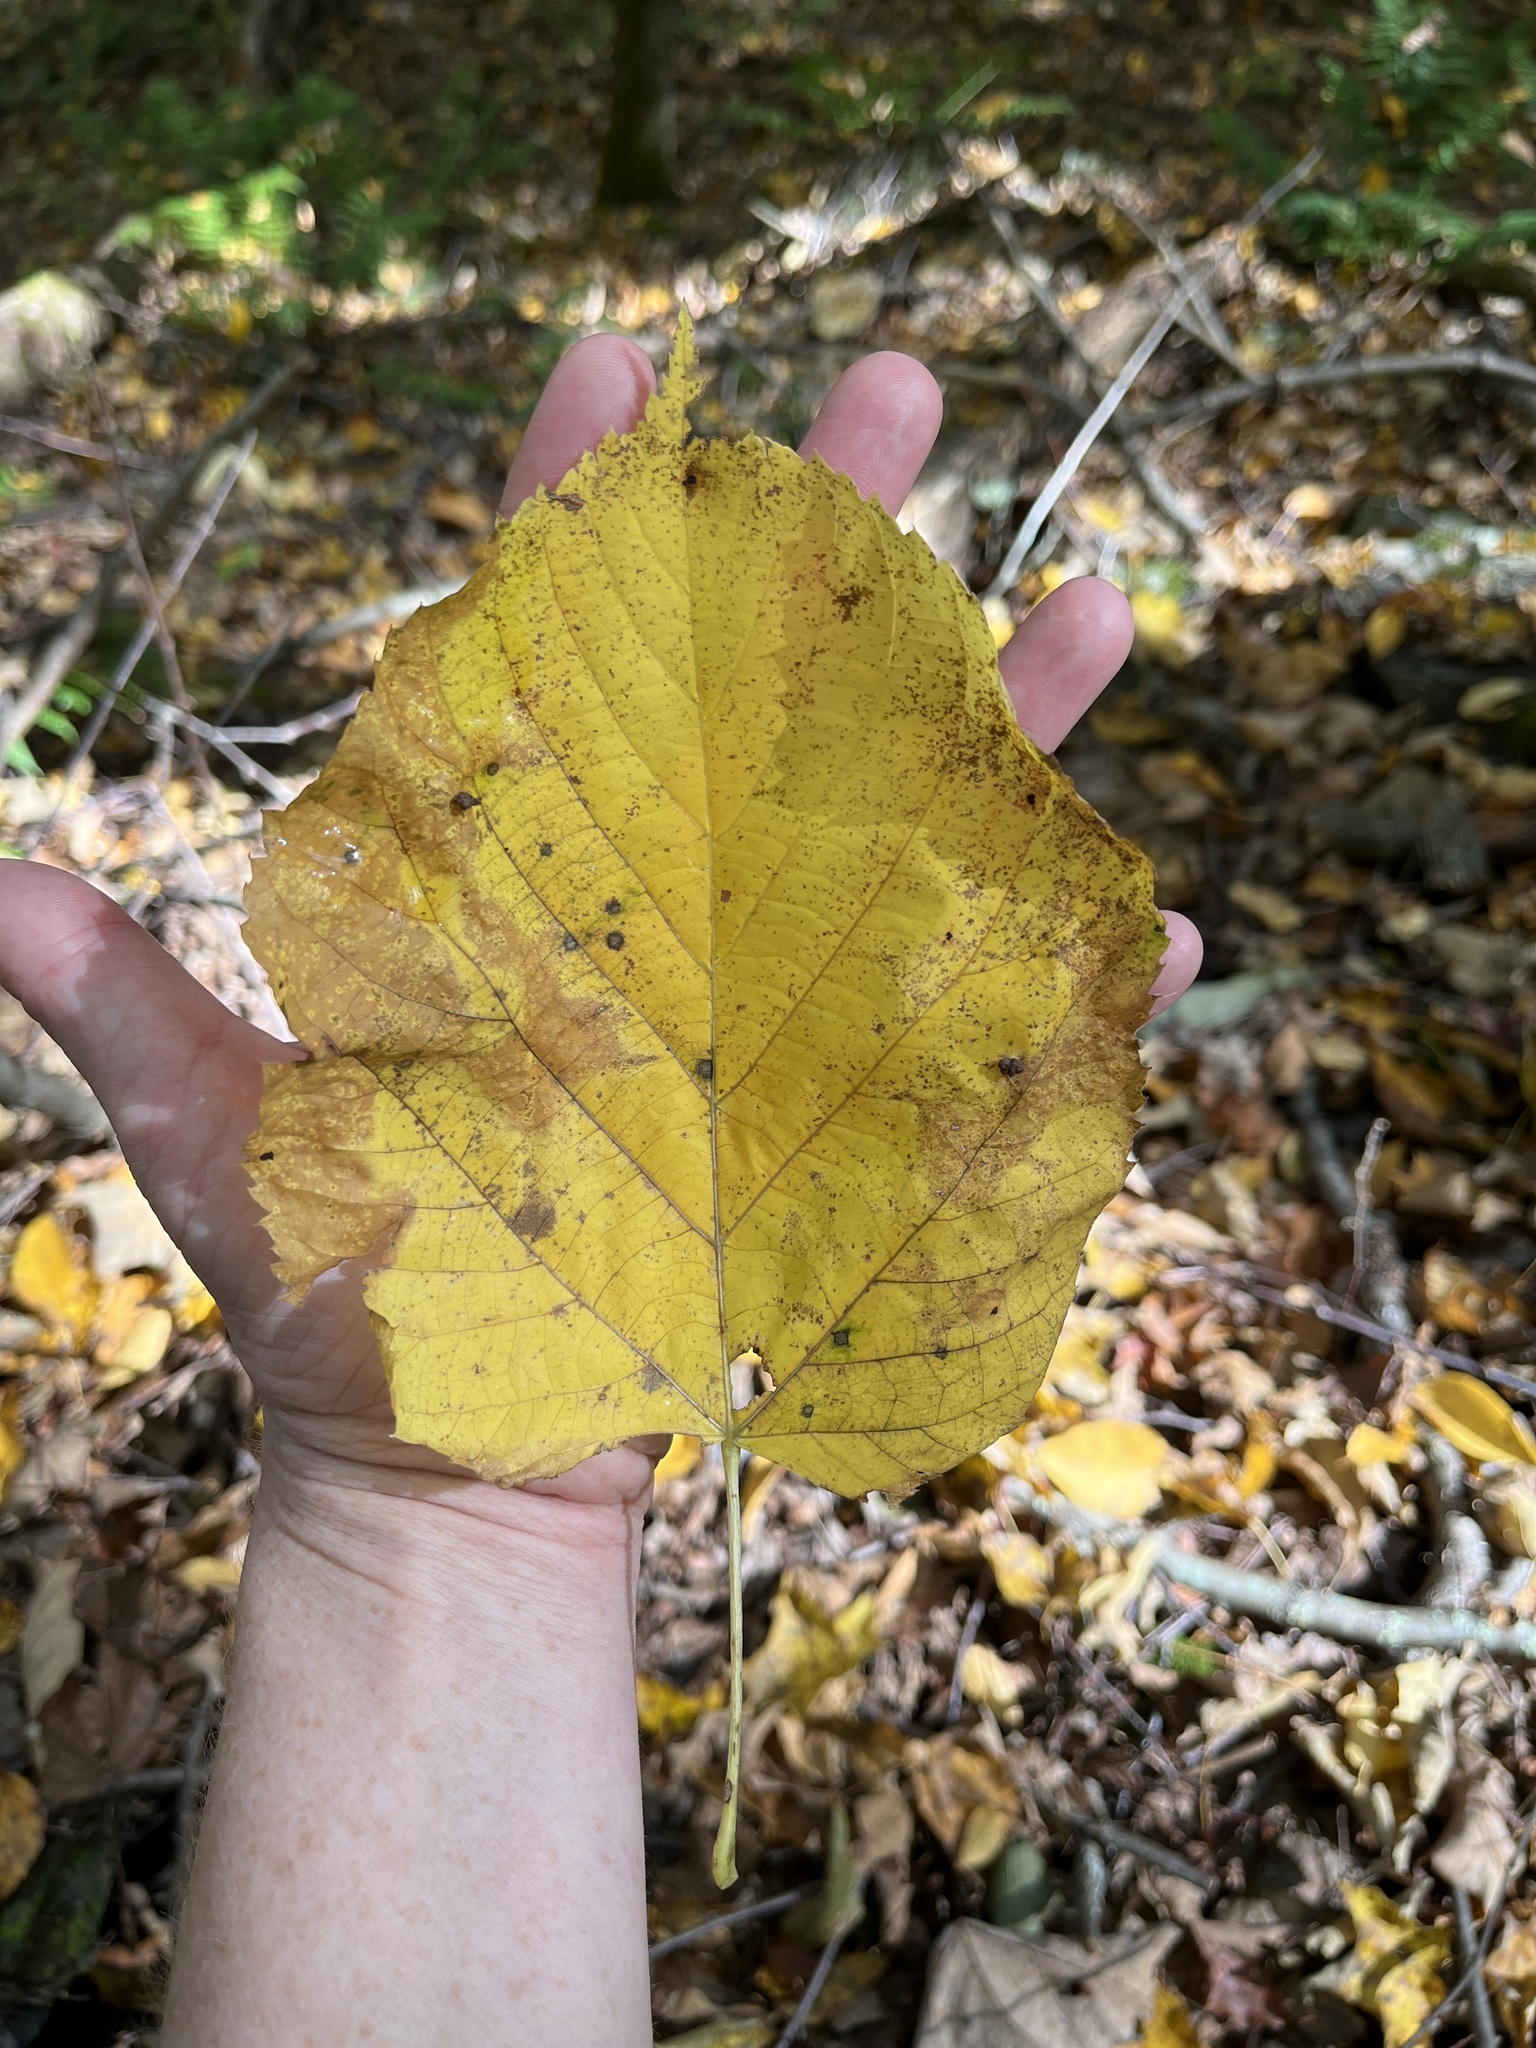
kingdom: Plantae
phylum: Tracheophyta
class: Magnoliopsida
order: Malvales
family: Malvaceae
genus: Tilia
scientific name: Tilia americana
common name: Basswood
